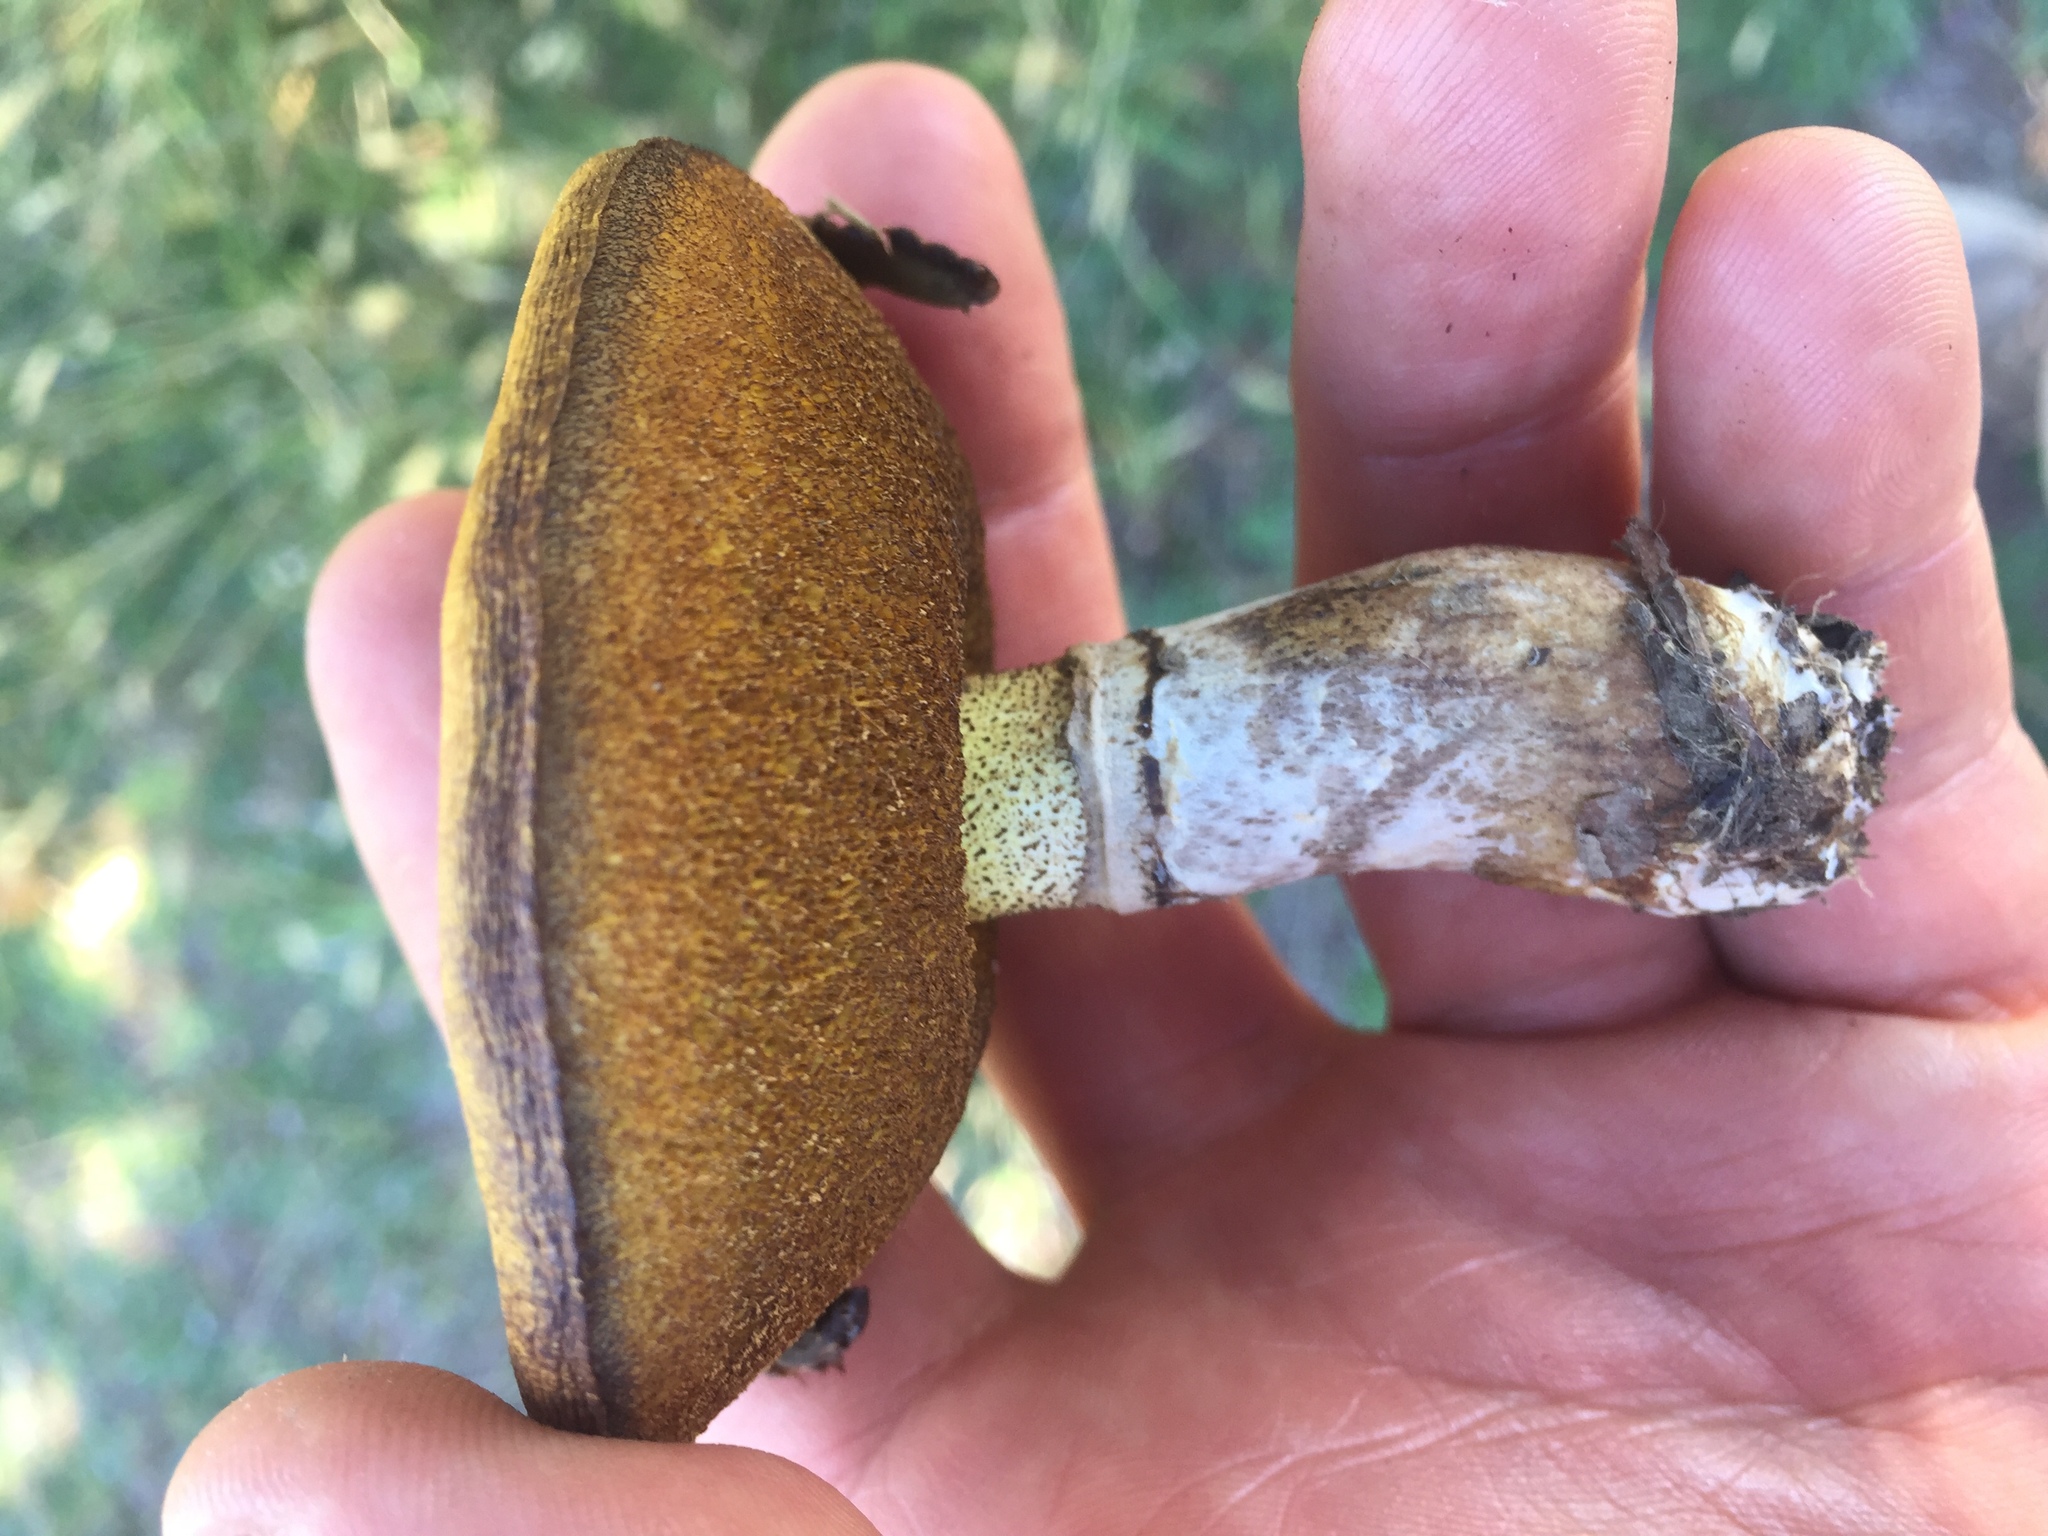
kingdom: Fungi
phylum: Basidiomycota
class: Agaricomycetes
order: Boletales
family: Suillaceae
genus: Suillus
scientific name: Suillus luteus
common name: Slippery jack
